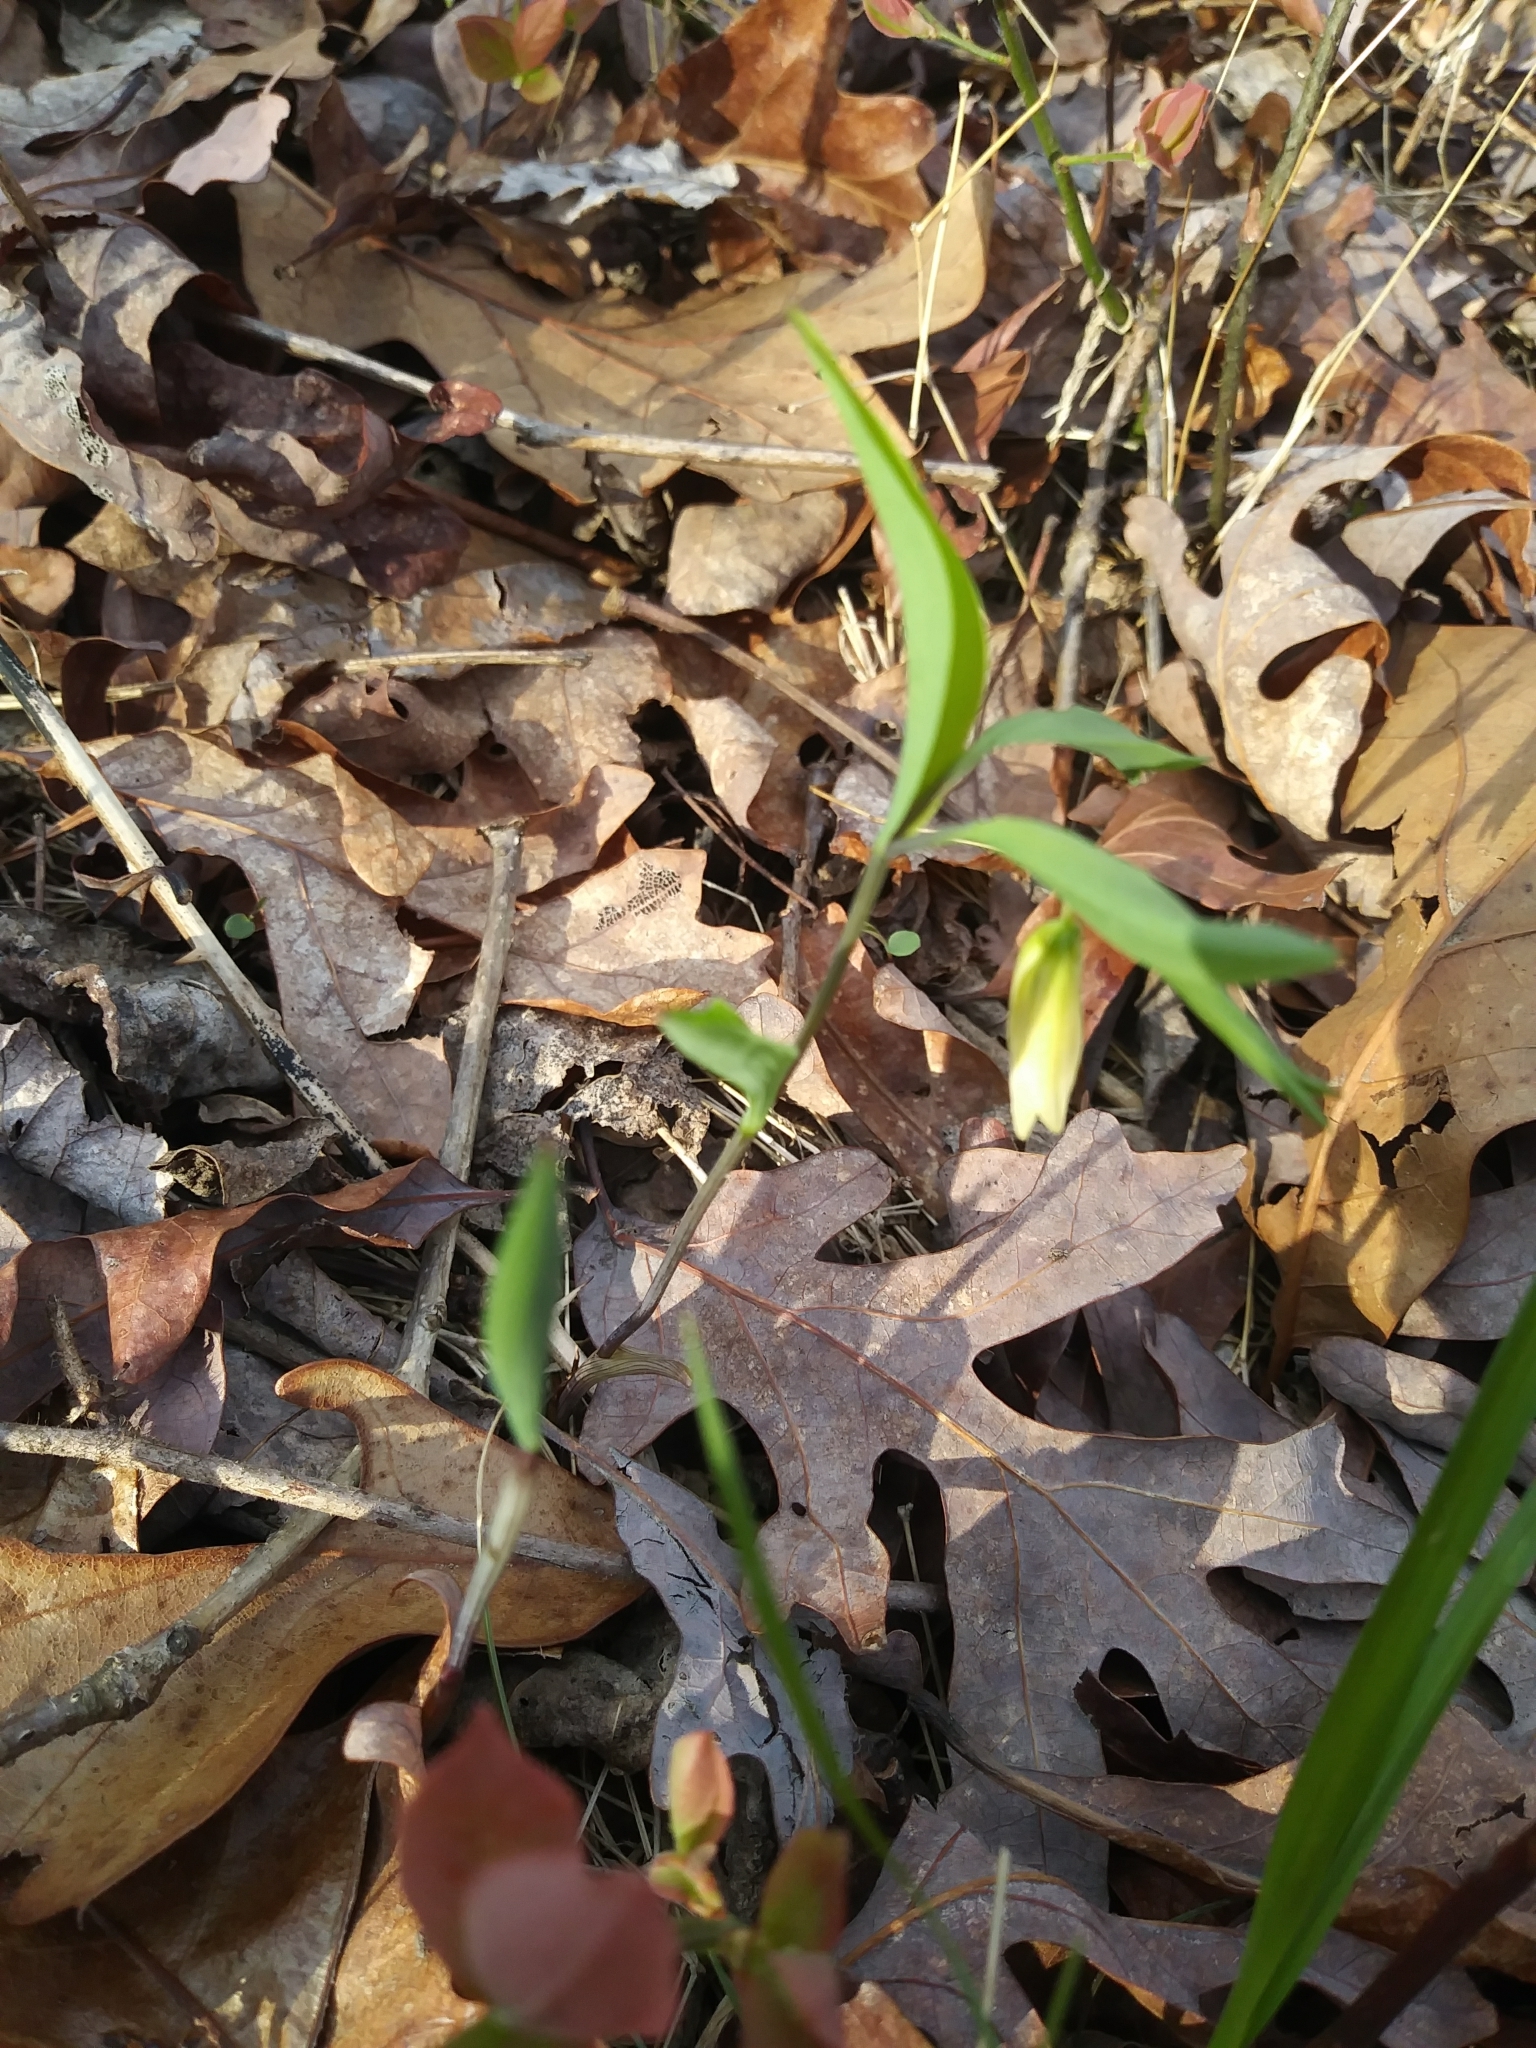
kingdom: Plantae
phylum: Tracheophyta
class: Liliopsida
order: Liliales
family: Colchicaceae
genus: Uvularia
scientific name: Uvularia sessilifolia
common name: Straw-lily
